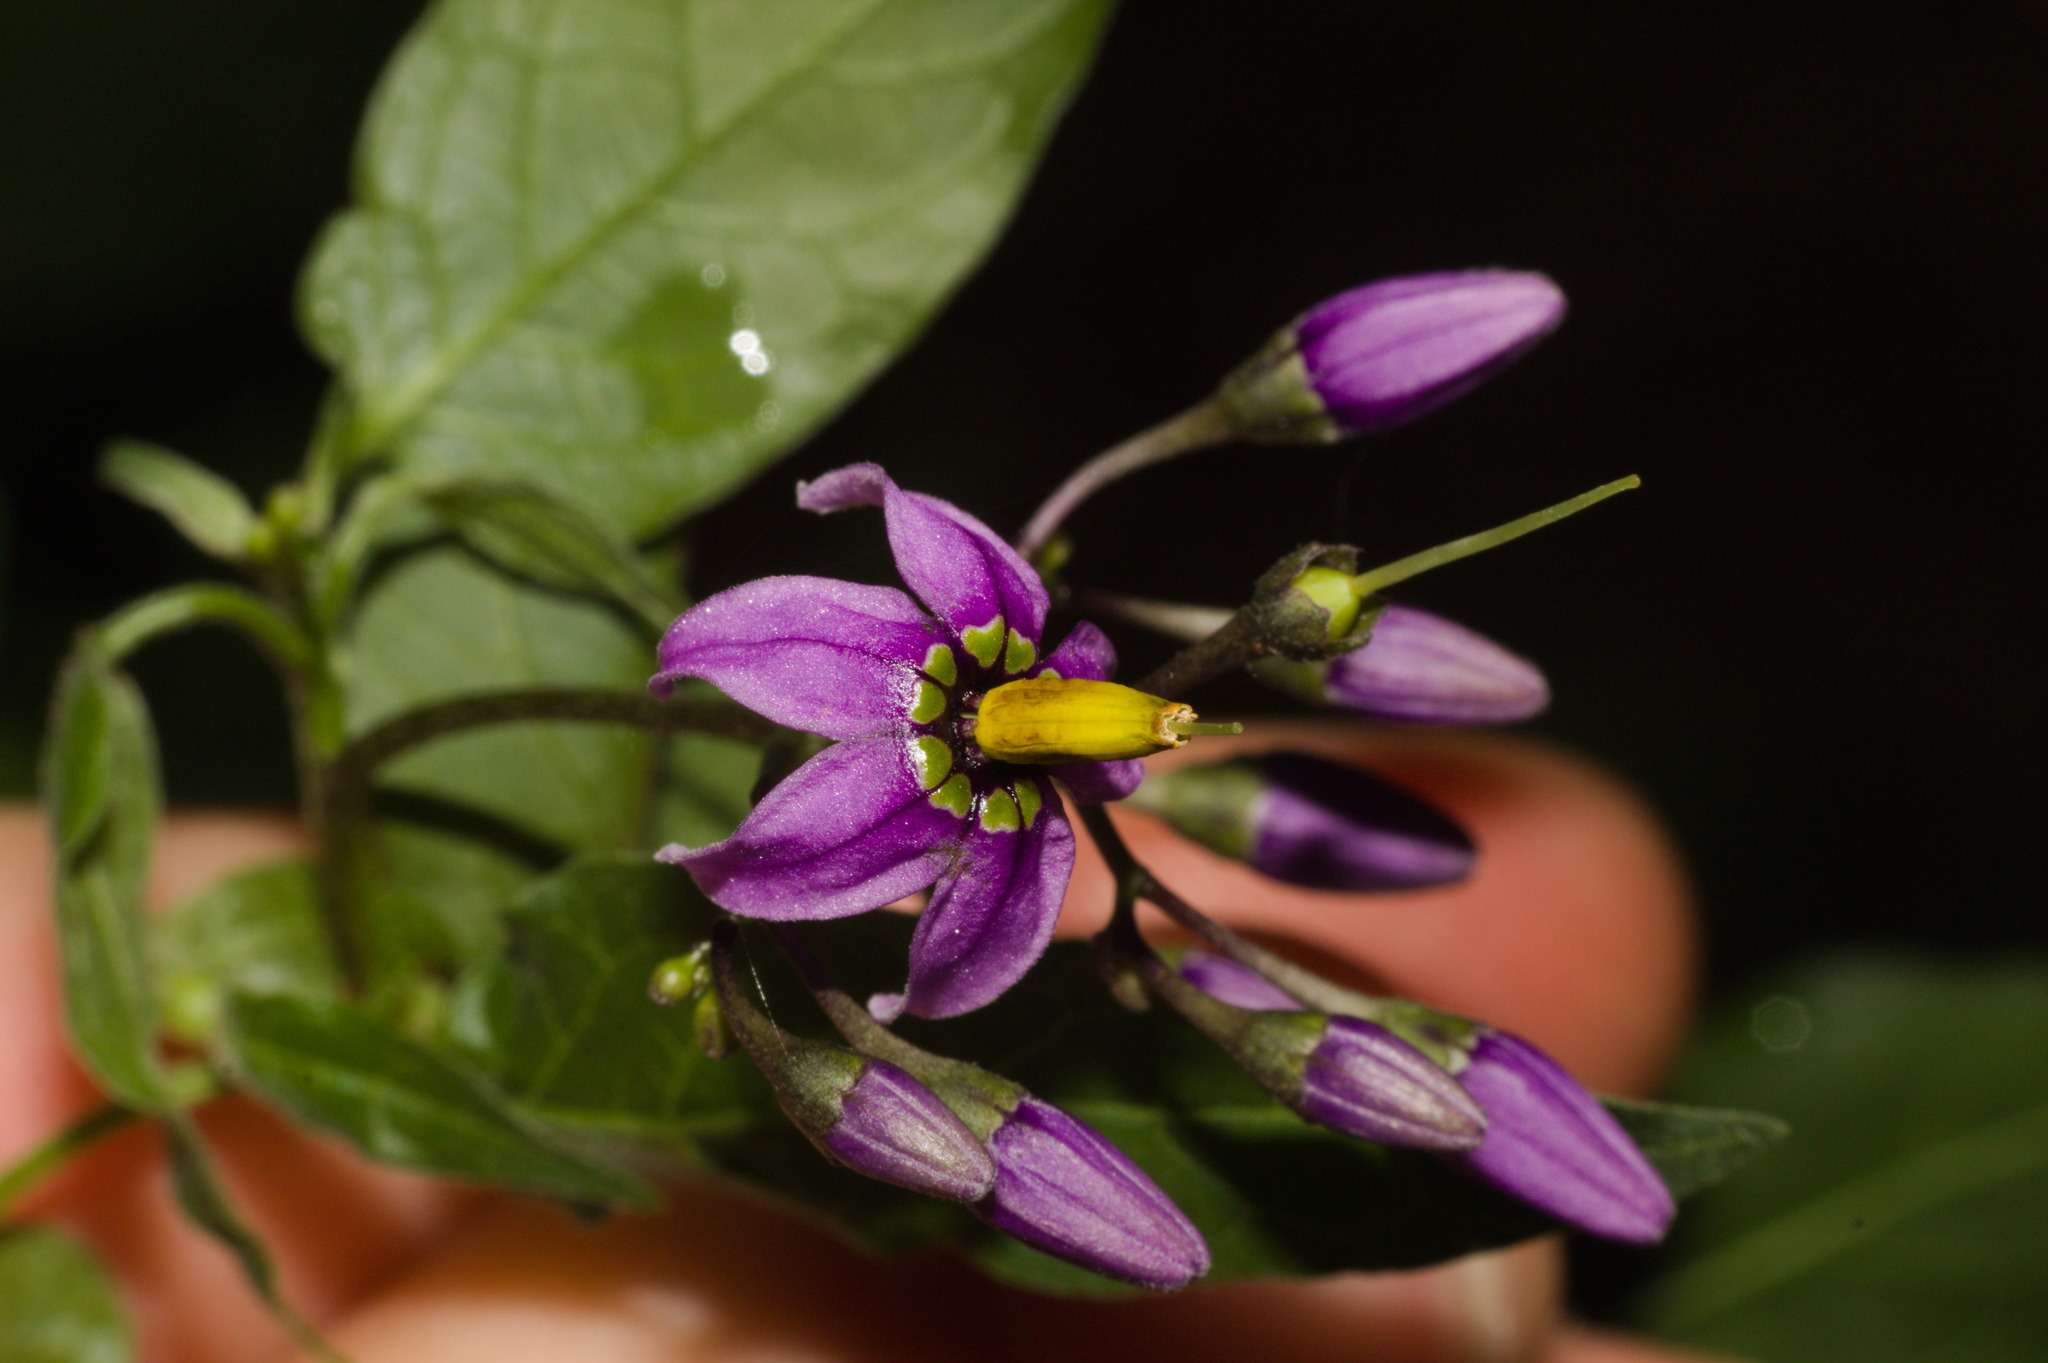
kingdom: Plantae
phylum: Tracheophyta
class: Magnoliopsida
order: Solanales
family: Solanaceae
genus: Solanum
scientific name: Solanum dulcamara
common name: Climbing nightshade
